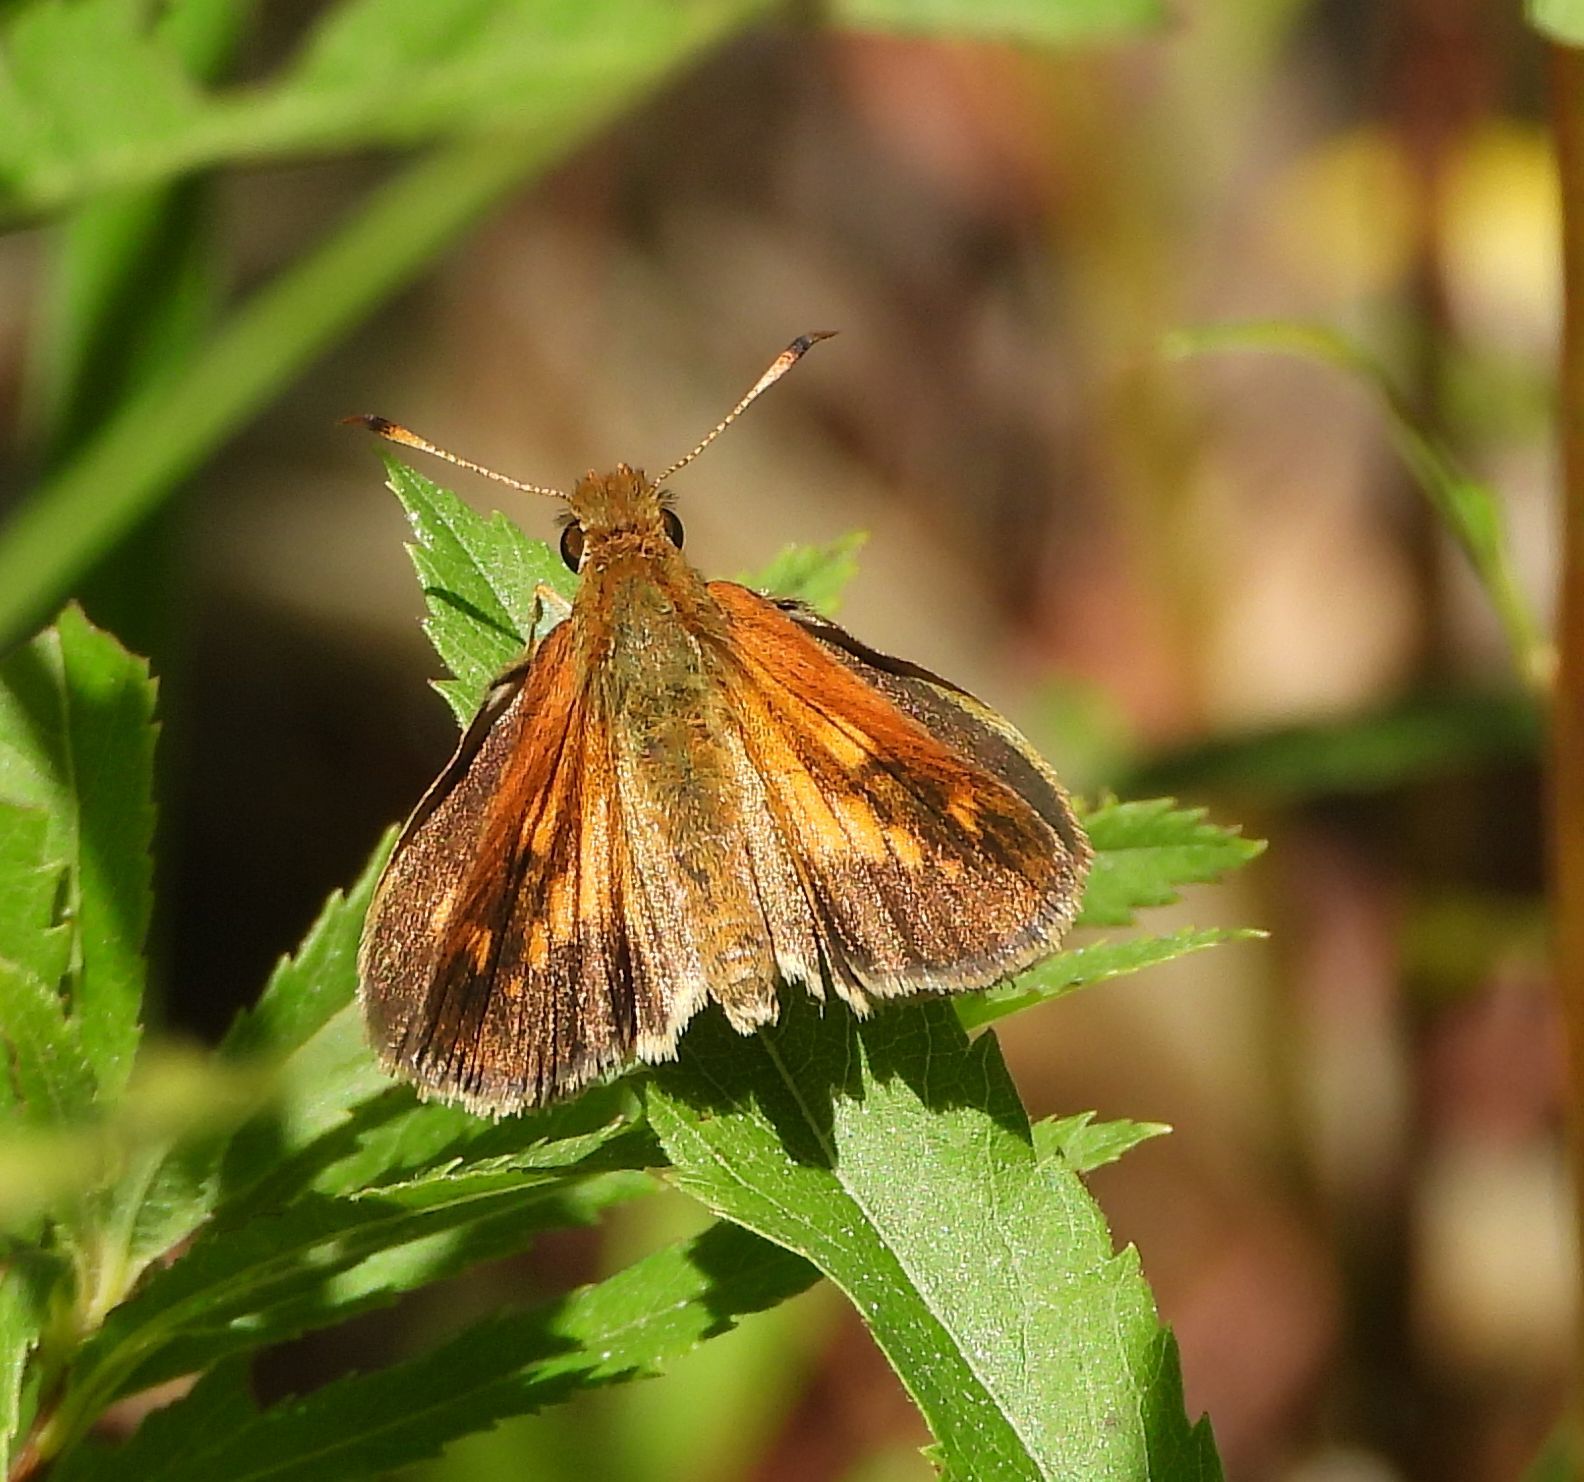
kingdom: Animalia
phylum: Arthropoda
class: Insecta
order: Lepidoptera
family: Hesperiidae
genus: Poanes
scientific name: Poanes viator
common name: Broad-winged skipper
